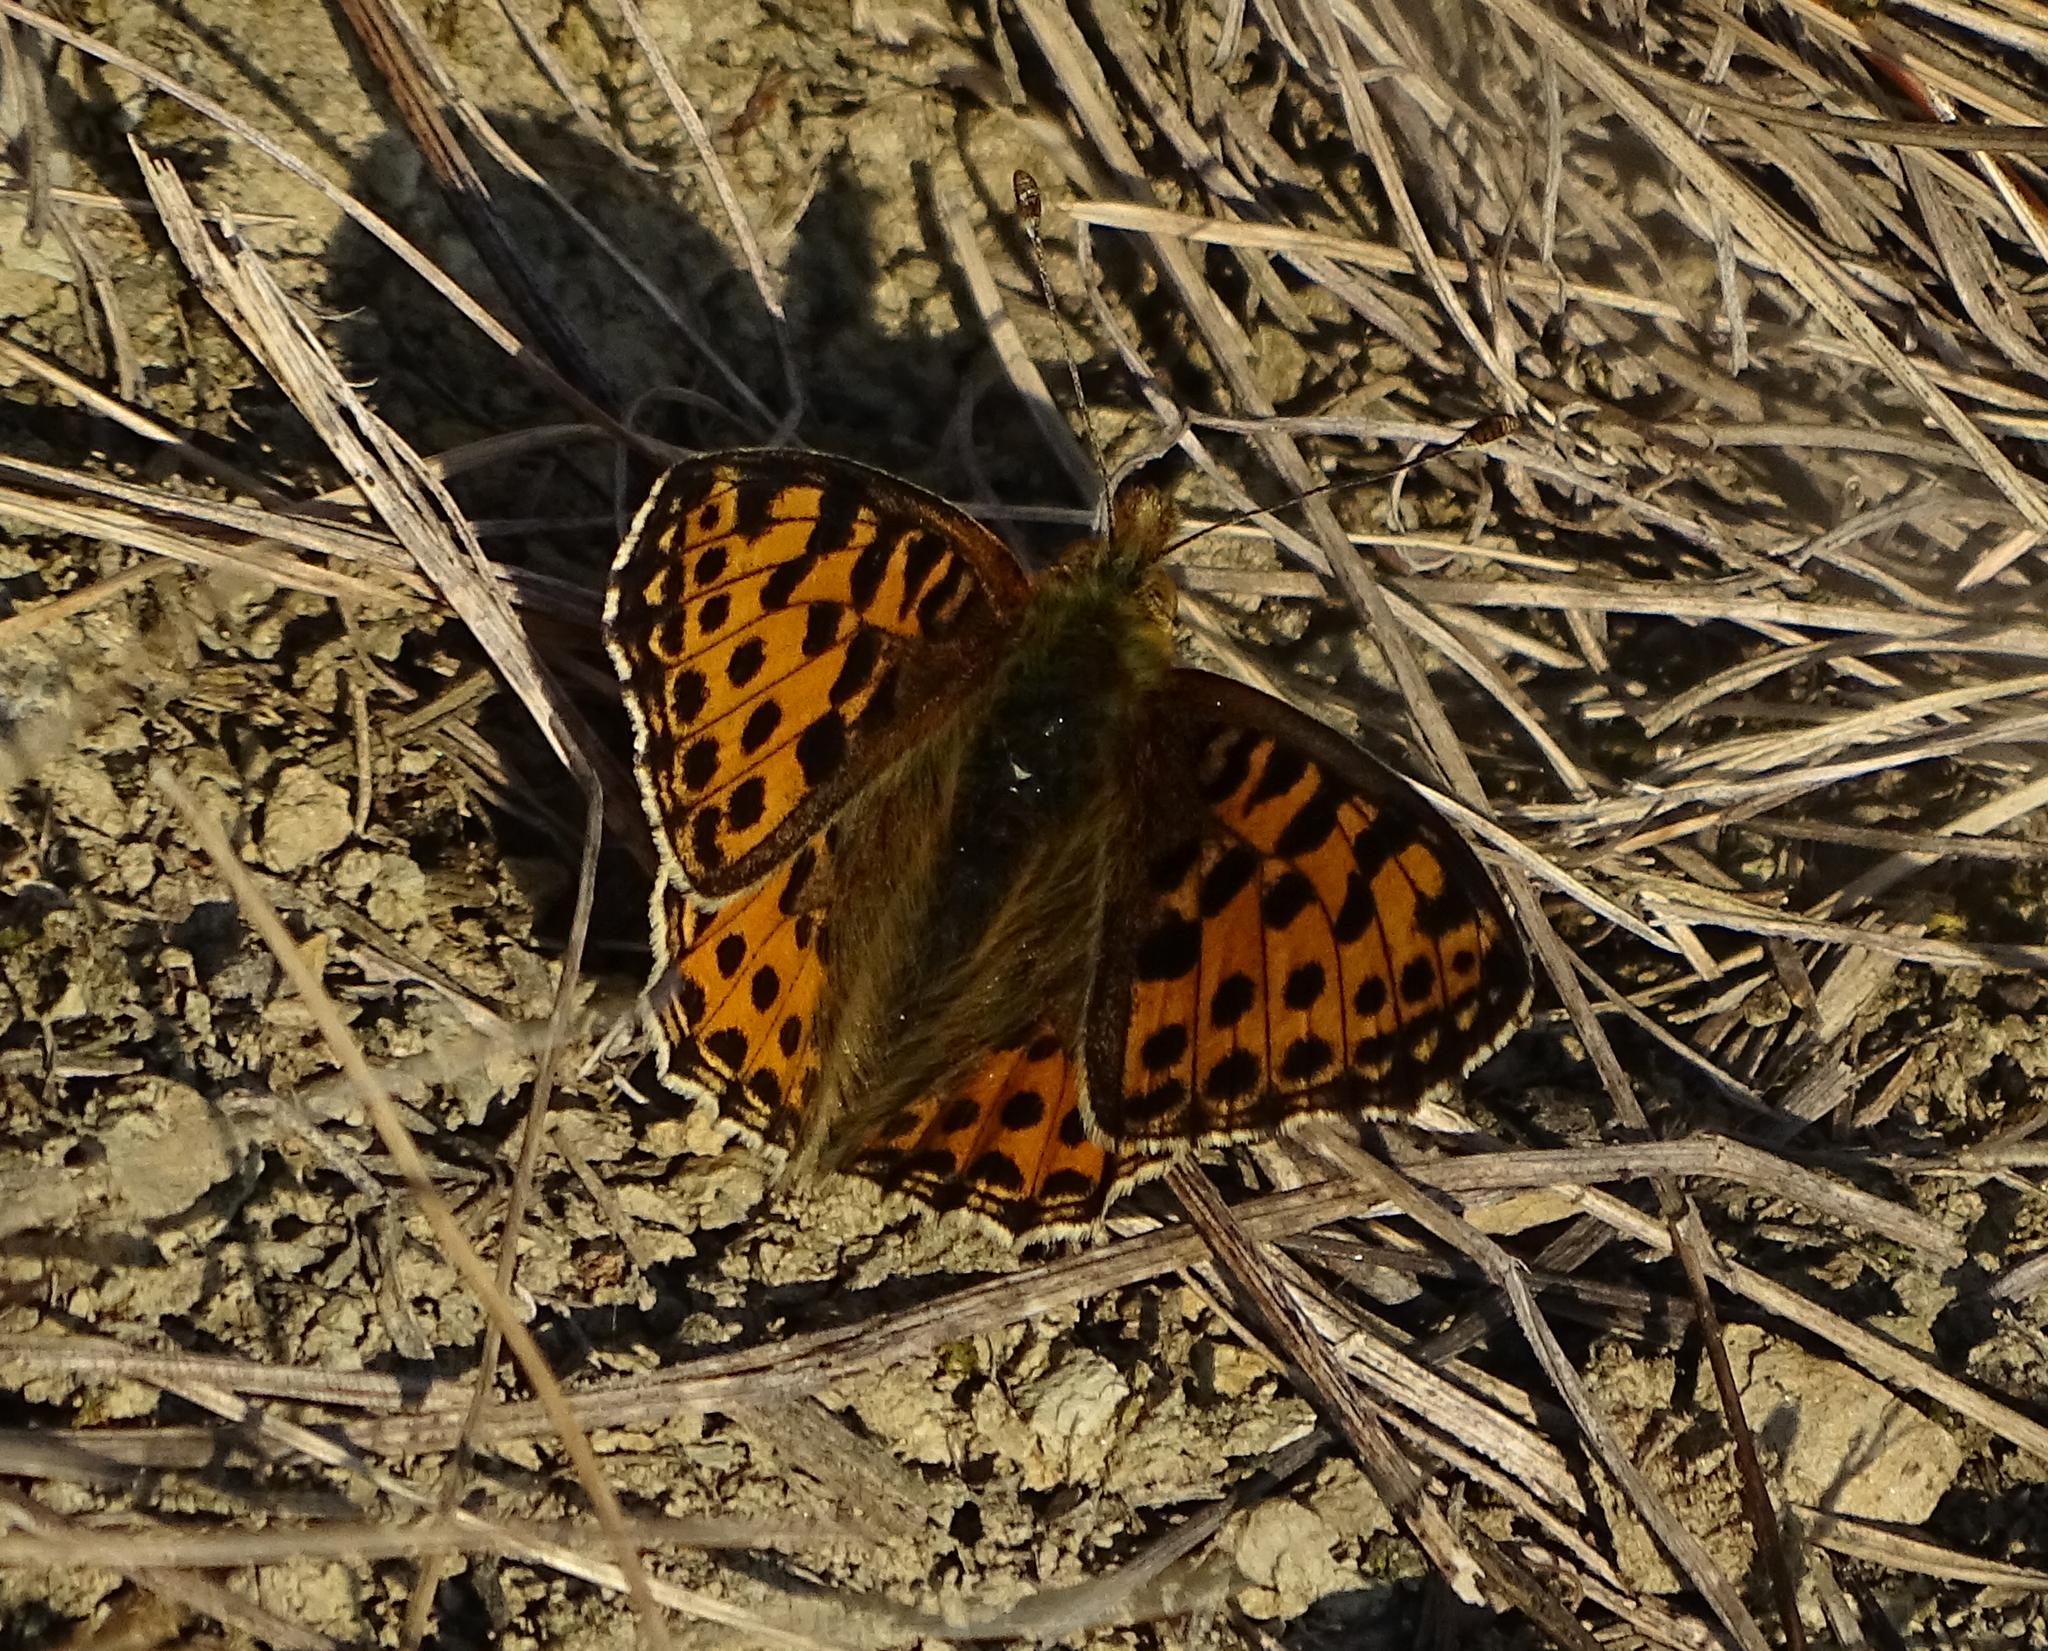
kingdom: Animalia
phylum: Arthropoda
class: Insecta
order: Lepidoptera
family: Nymphalidae
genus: Issoria
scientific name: Issoria lathonia
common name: Queen of spain fritillary
